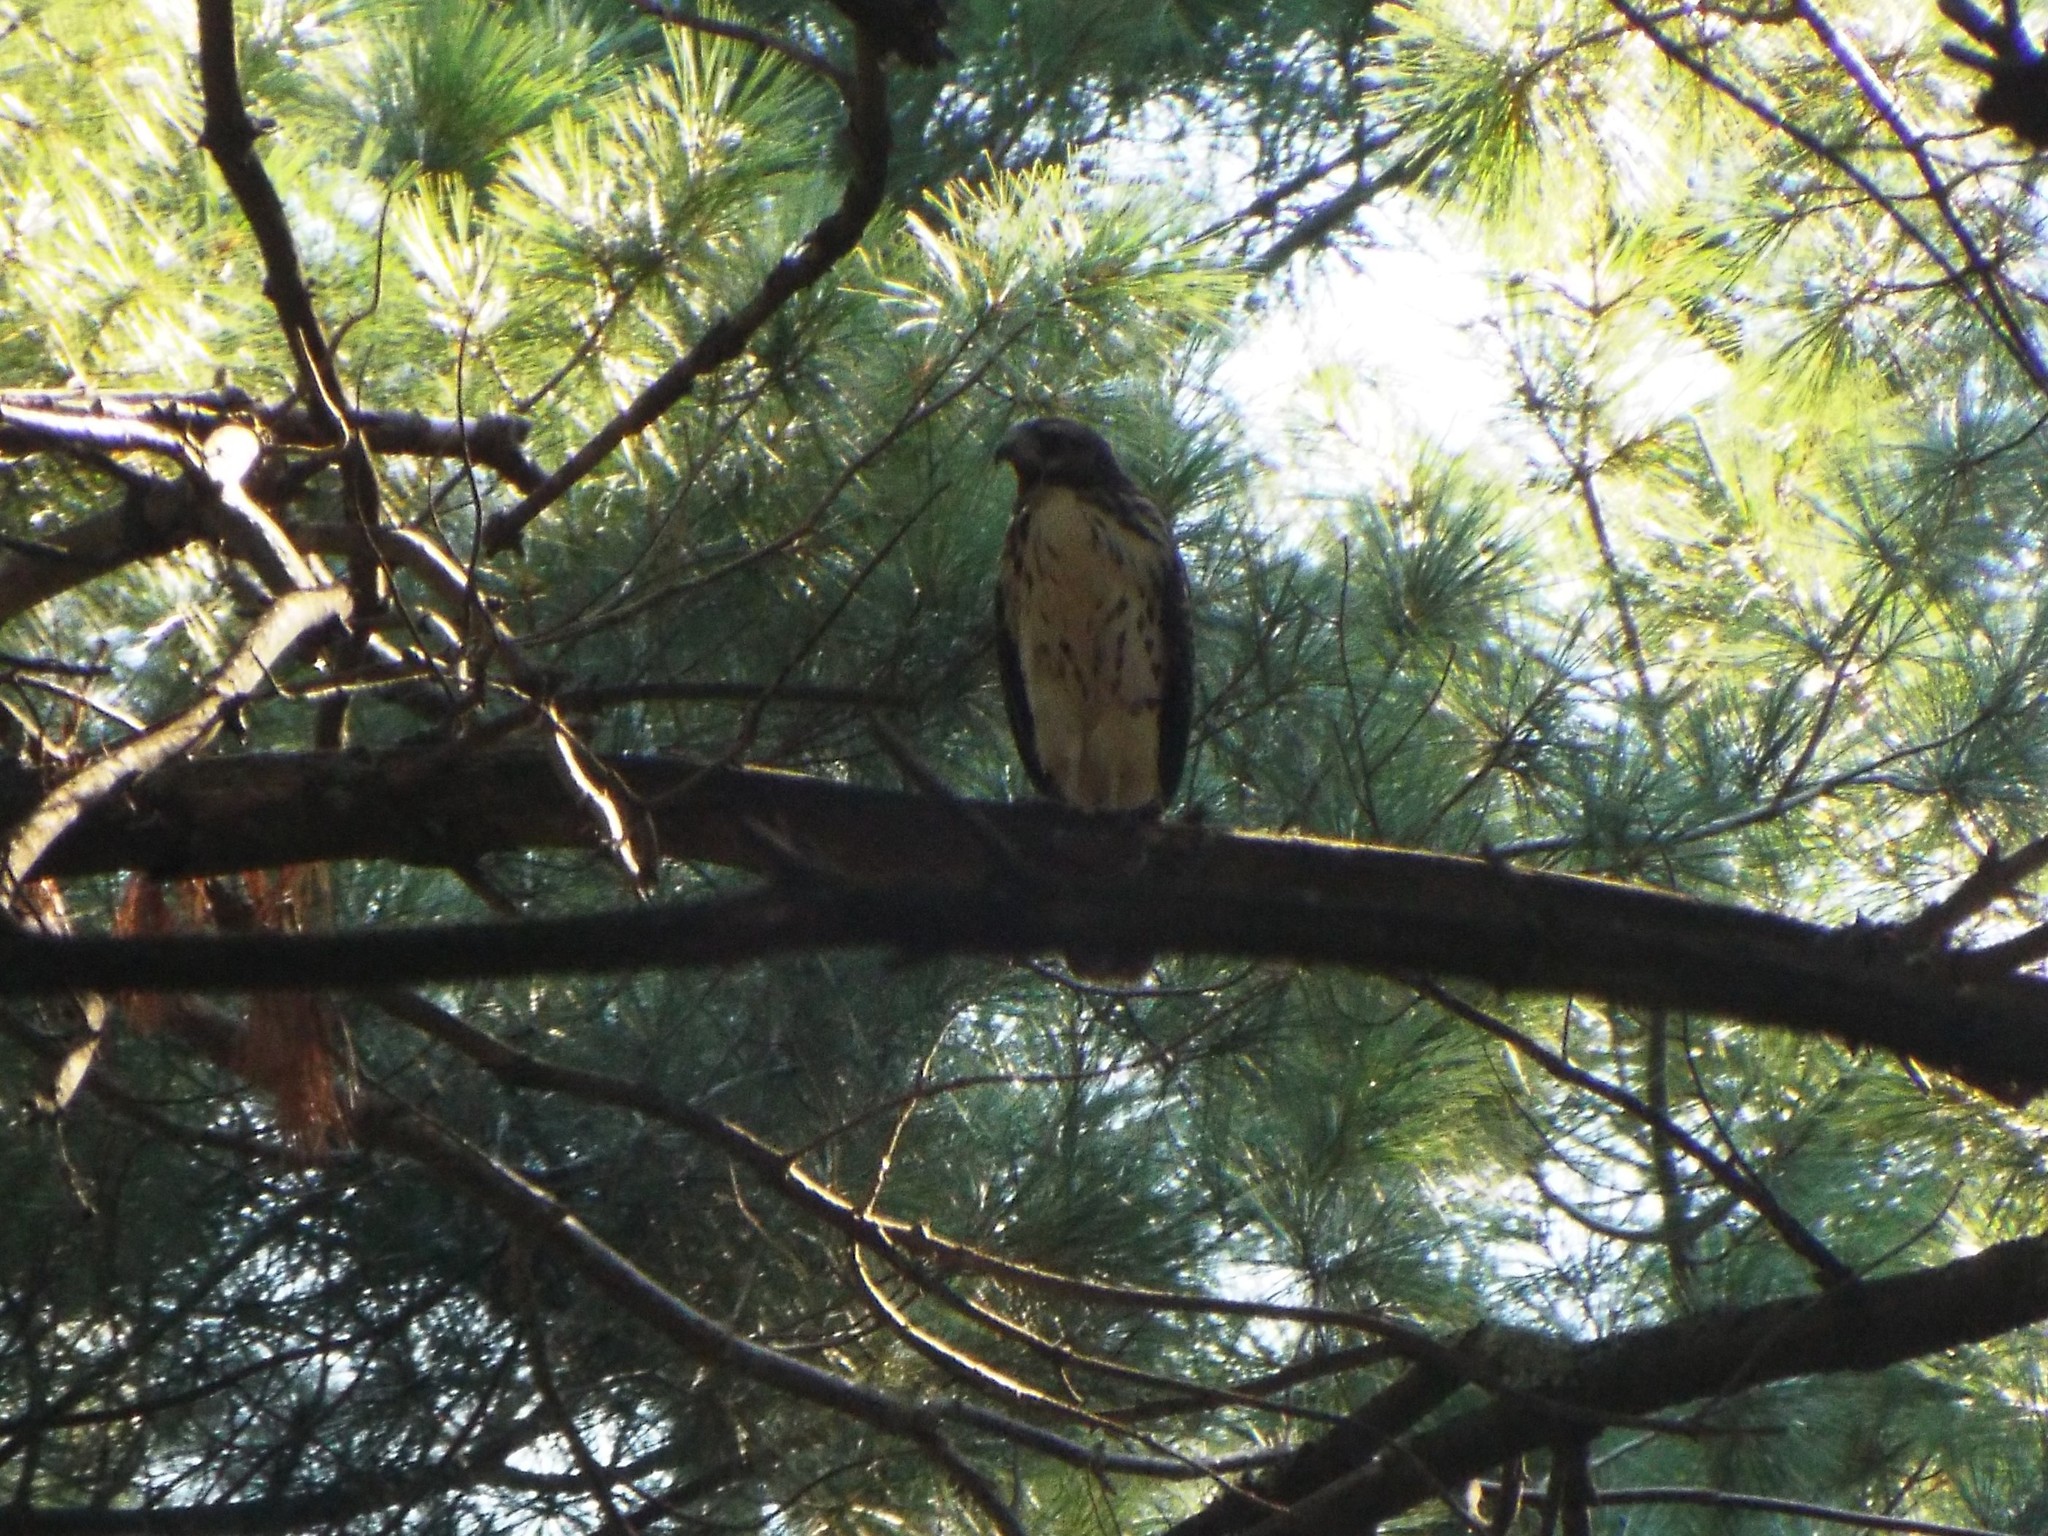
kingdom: Animalia
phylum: Chordata
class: Aves
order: Accipitriformes
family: Accipitridae
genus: Buteo
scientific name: Buteo platypterus
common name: Broad-winged hawk
